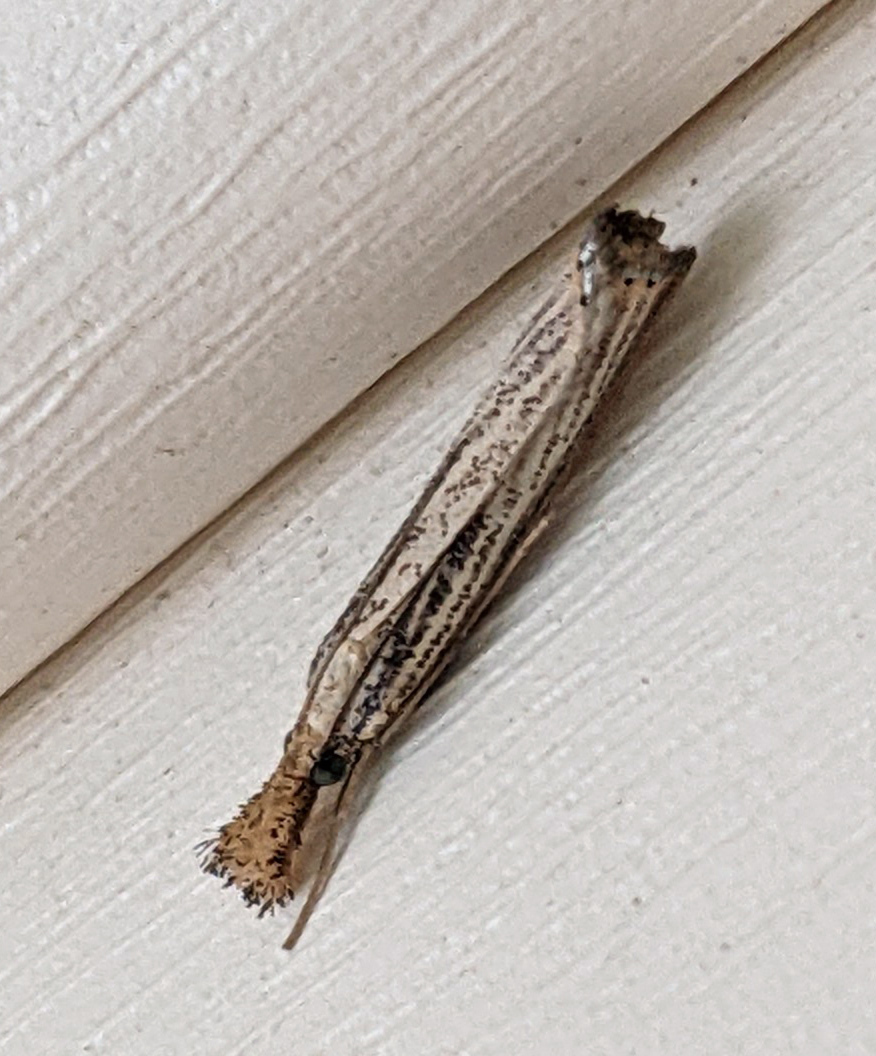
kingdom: Animalia
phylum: Arthropoda
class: Insecta
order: Lepidoptera
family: Crambidae
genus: Agriphila
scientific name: Agriphila vulgivagellus
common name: Vagabond crambus moth
